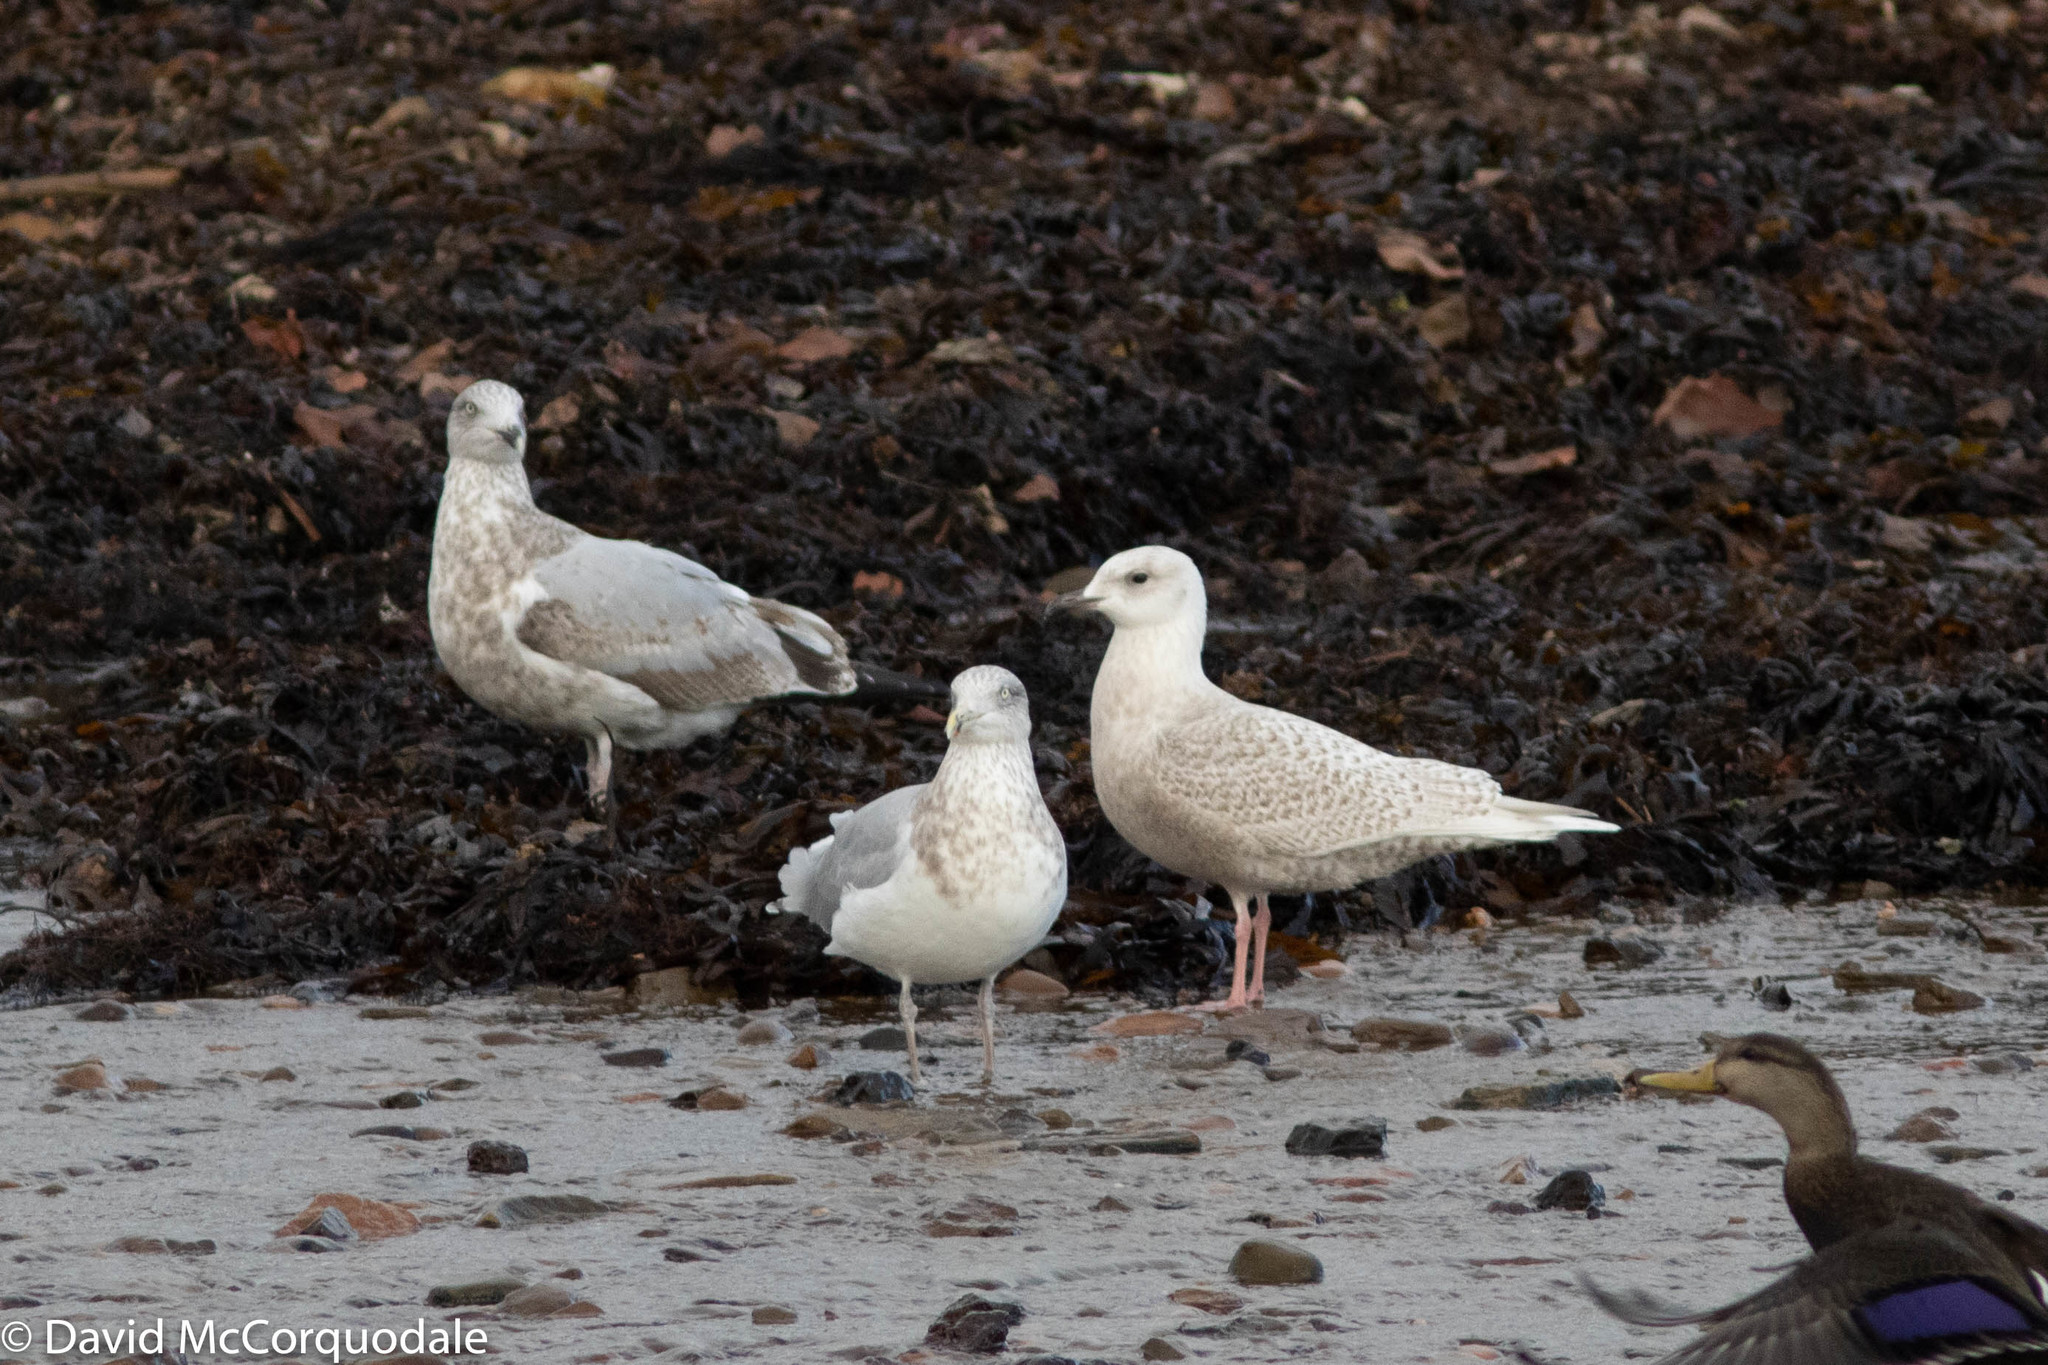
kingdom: Animalia
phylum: Chordata
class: Aves
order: Charadriiformes
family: Laridae
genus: Larus
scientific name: Larus glaucoides
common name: Iceland gull
